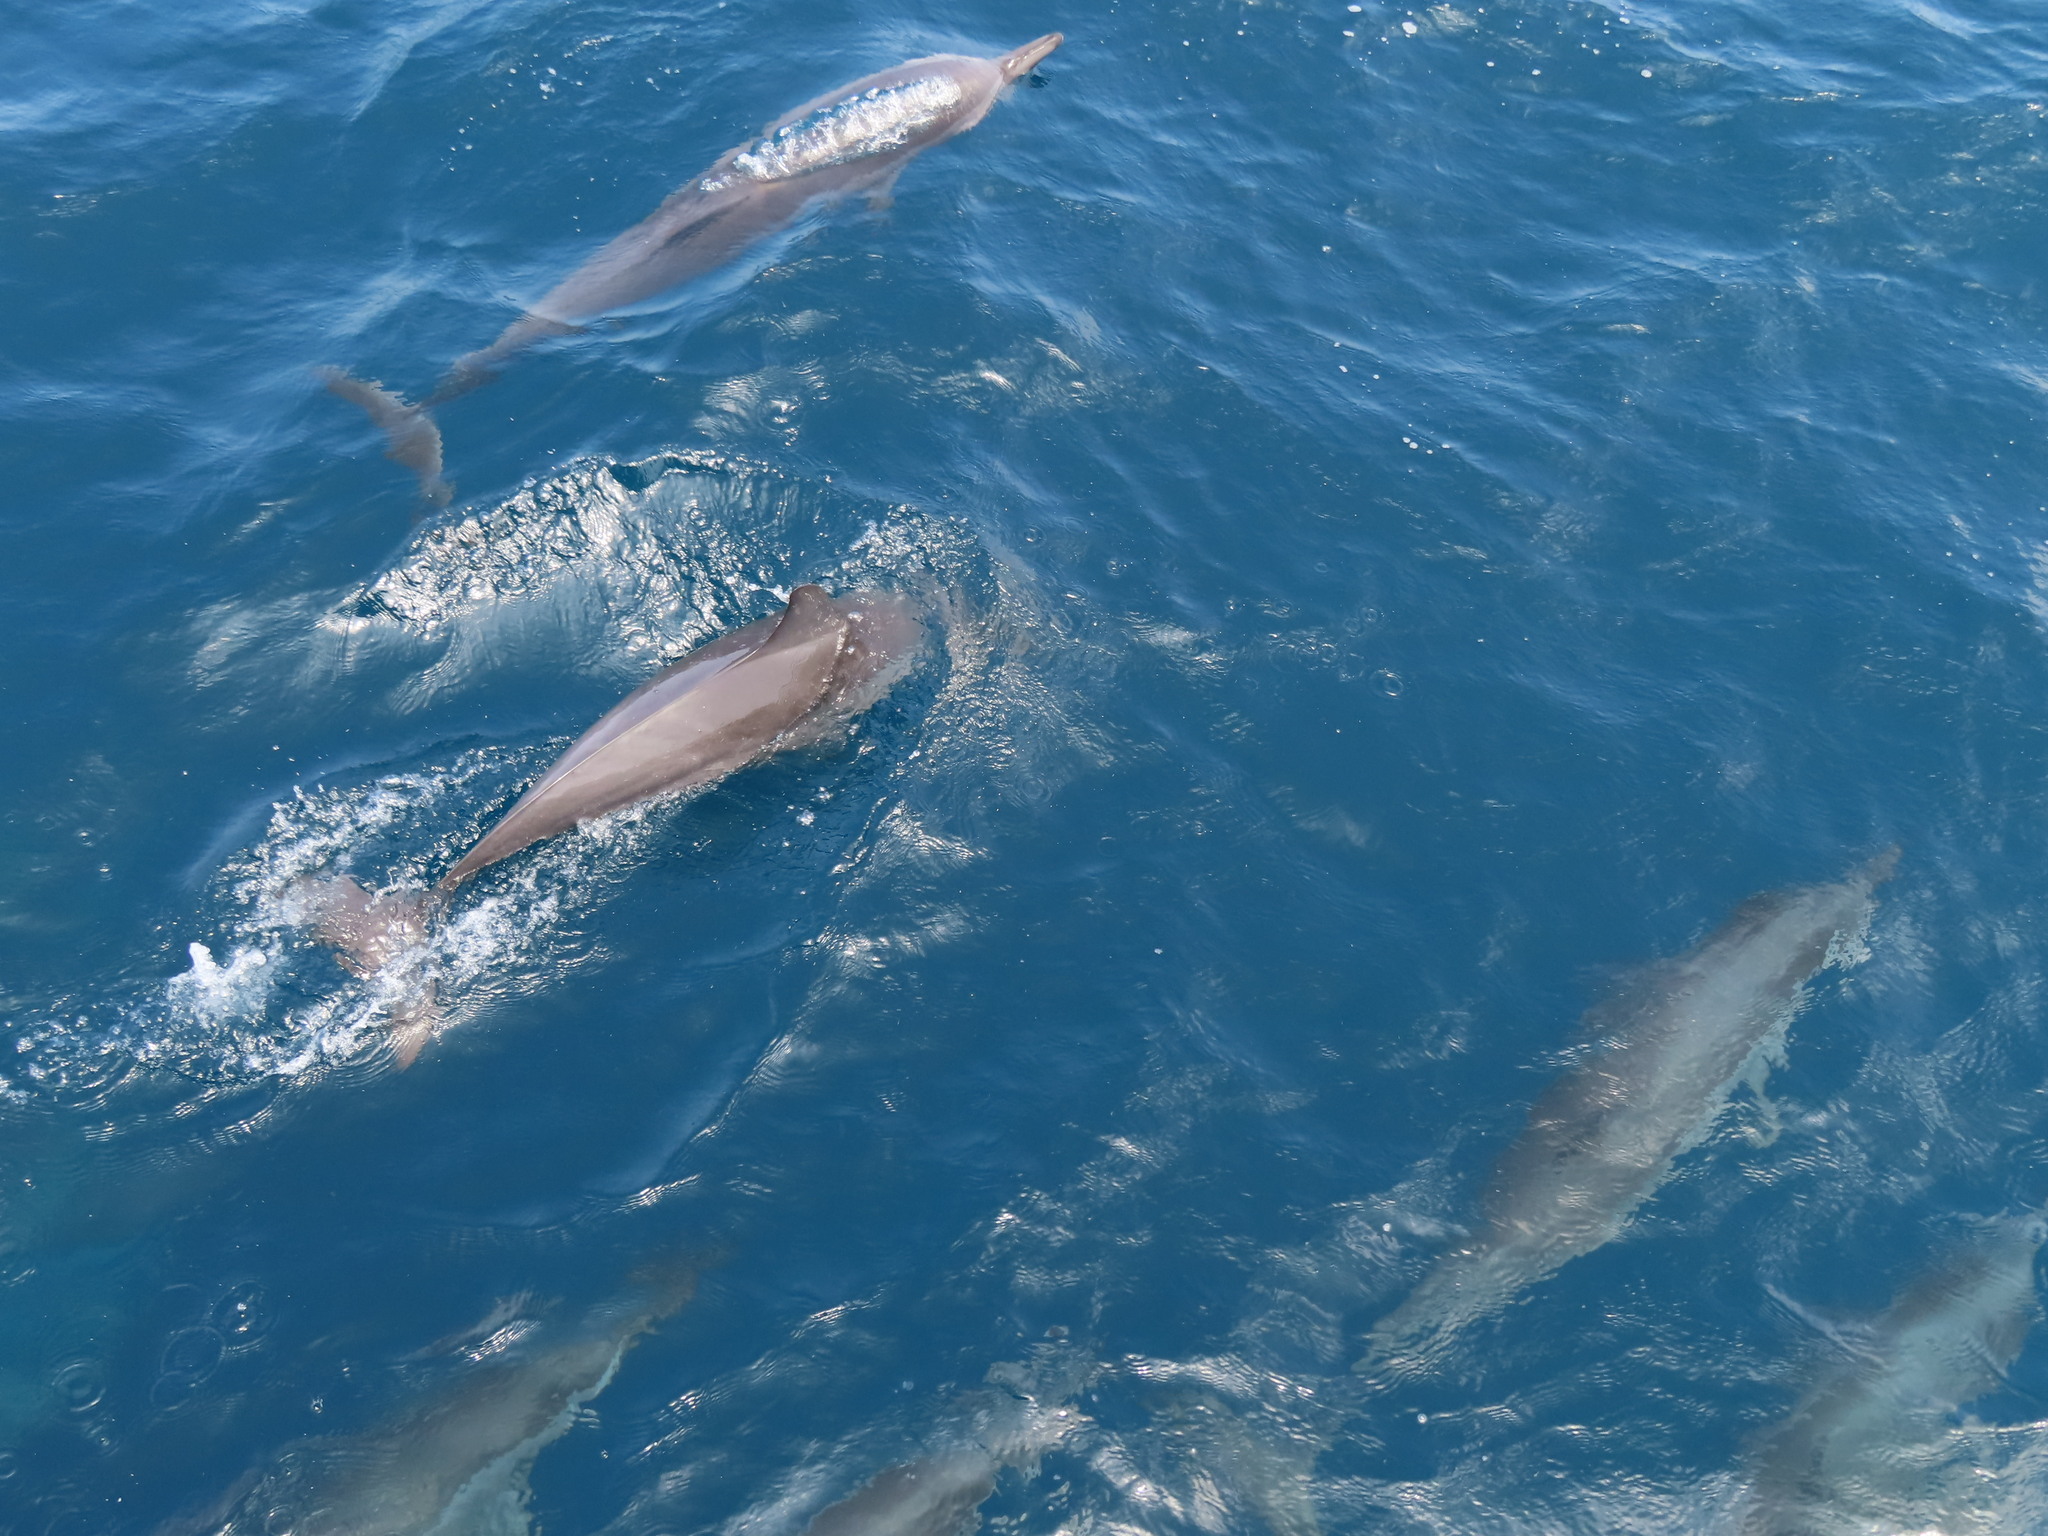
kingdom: Animalia
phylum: Chordata
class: Mammalia
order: Cetacea
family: Delphinidae
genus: Stenella
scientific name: Stenella longirostris
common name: Spinner dolphin
